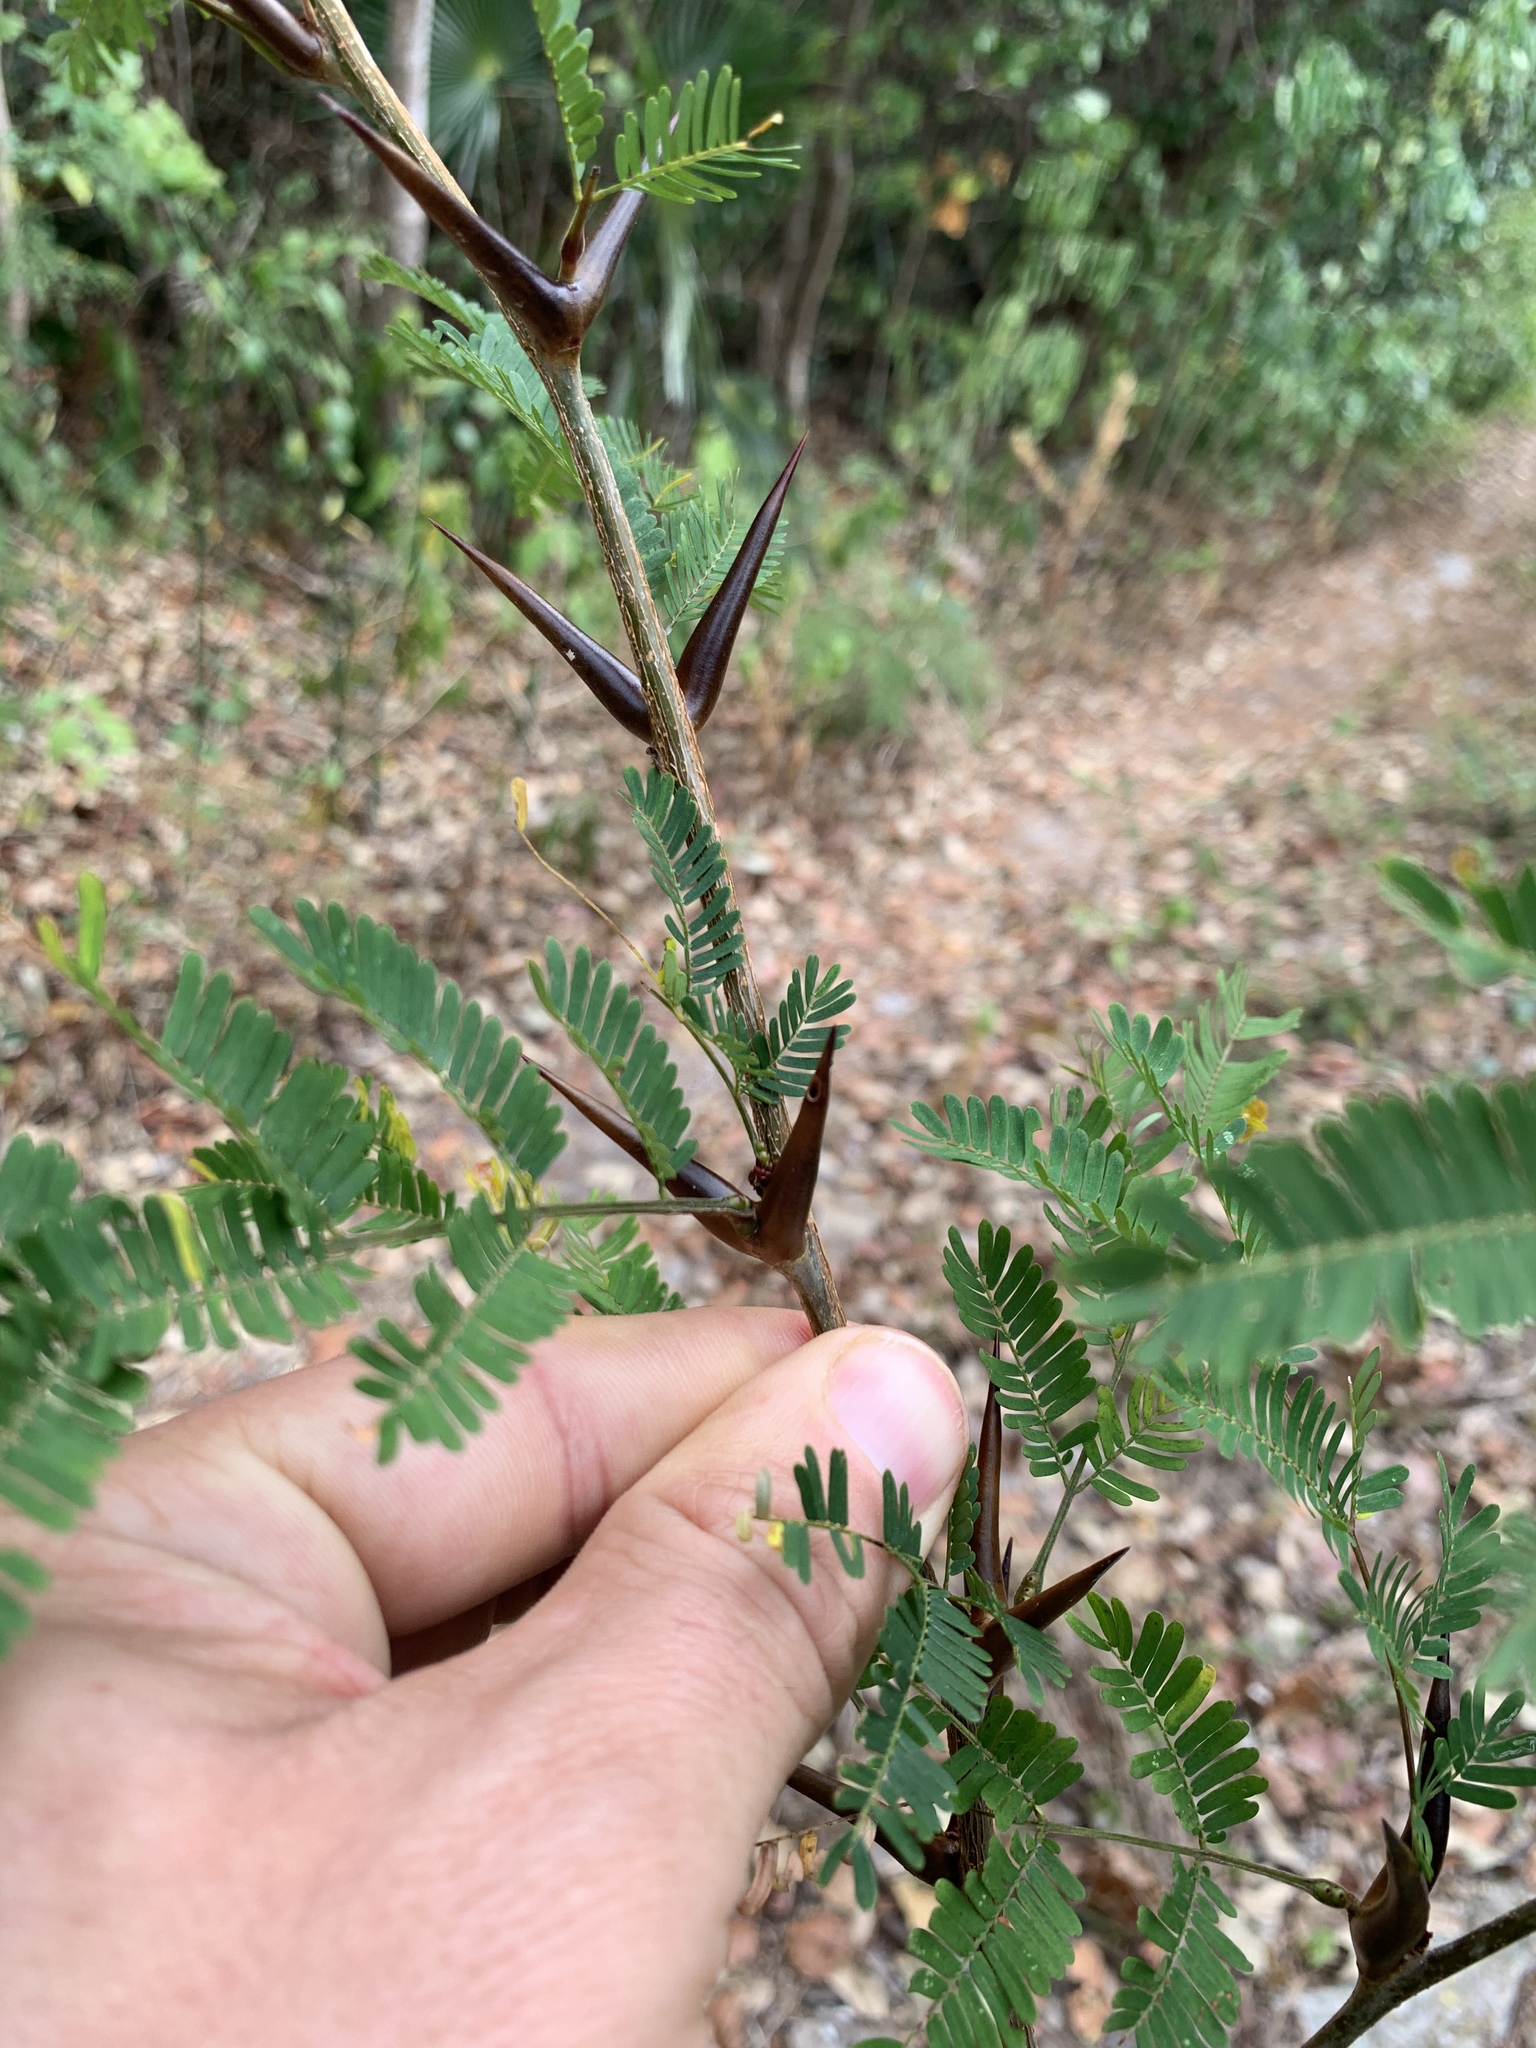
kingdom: Plantae
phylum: Tracheophyta
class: Magnoliopsida
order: Fabales
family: Fabaceae
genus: Vachellia
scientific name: Vachellia cornigera
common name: Bullhorn wattle
